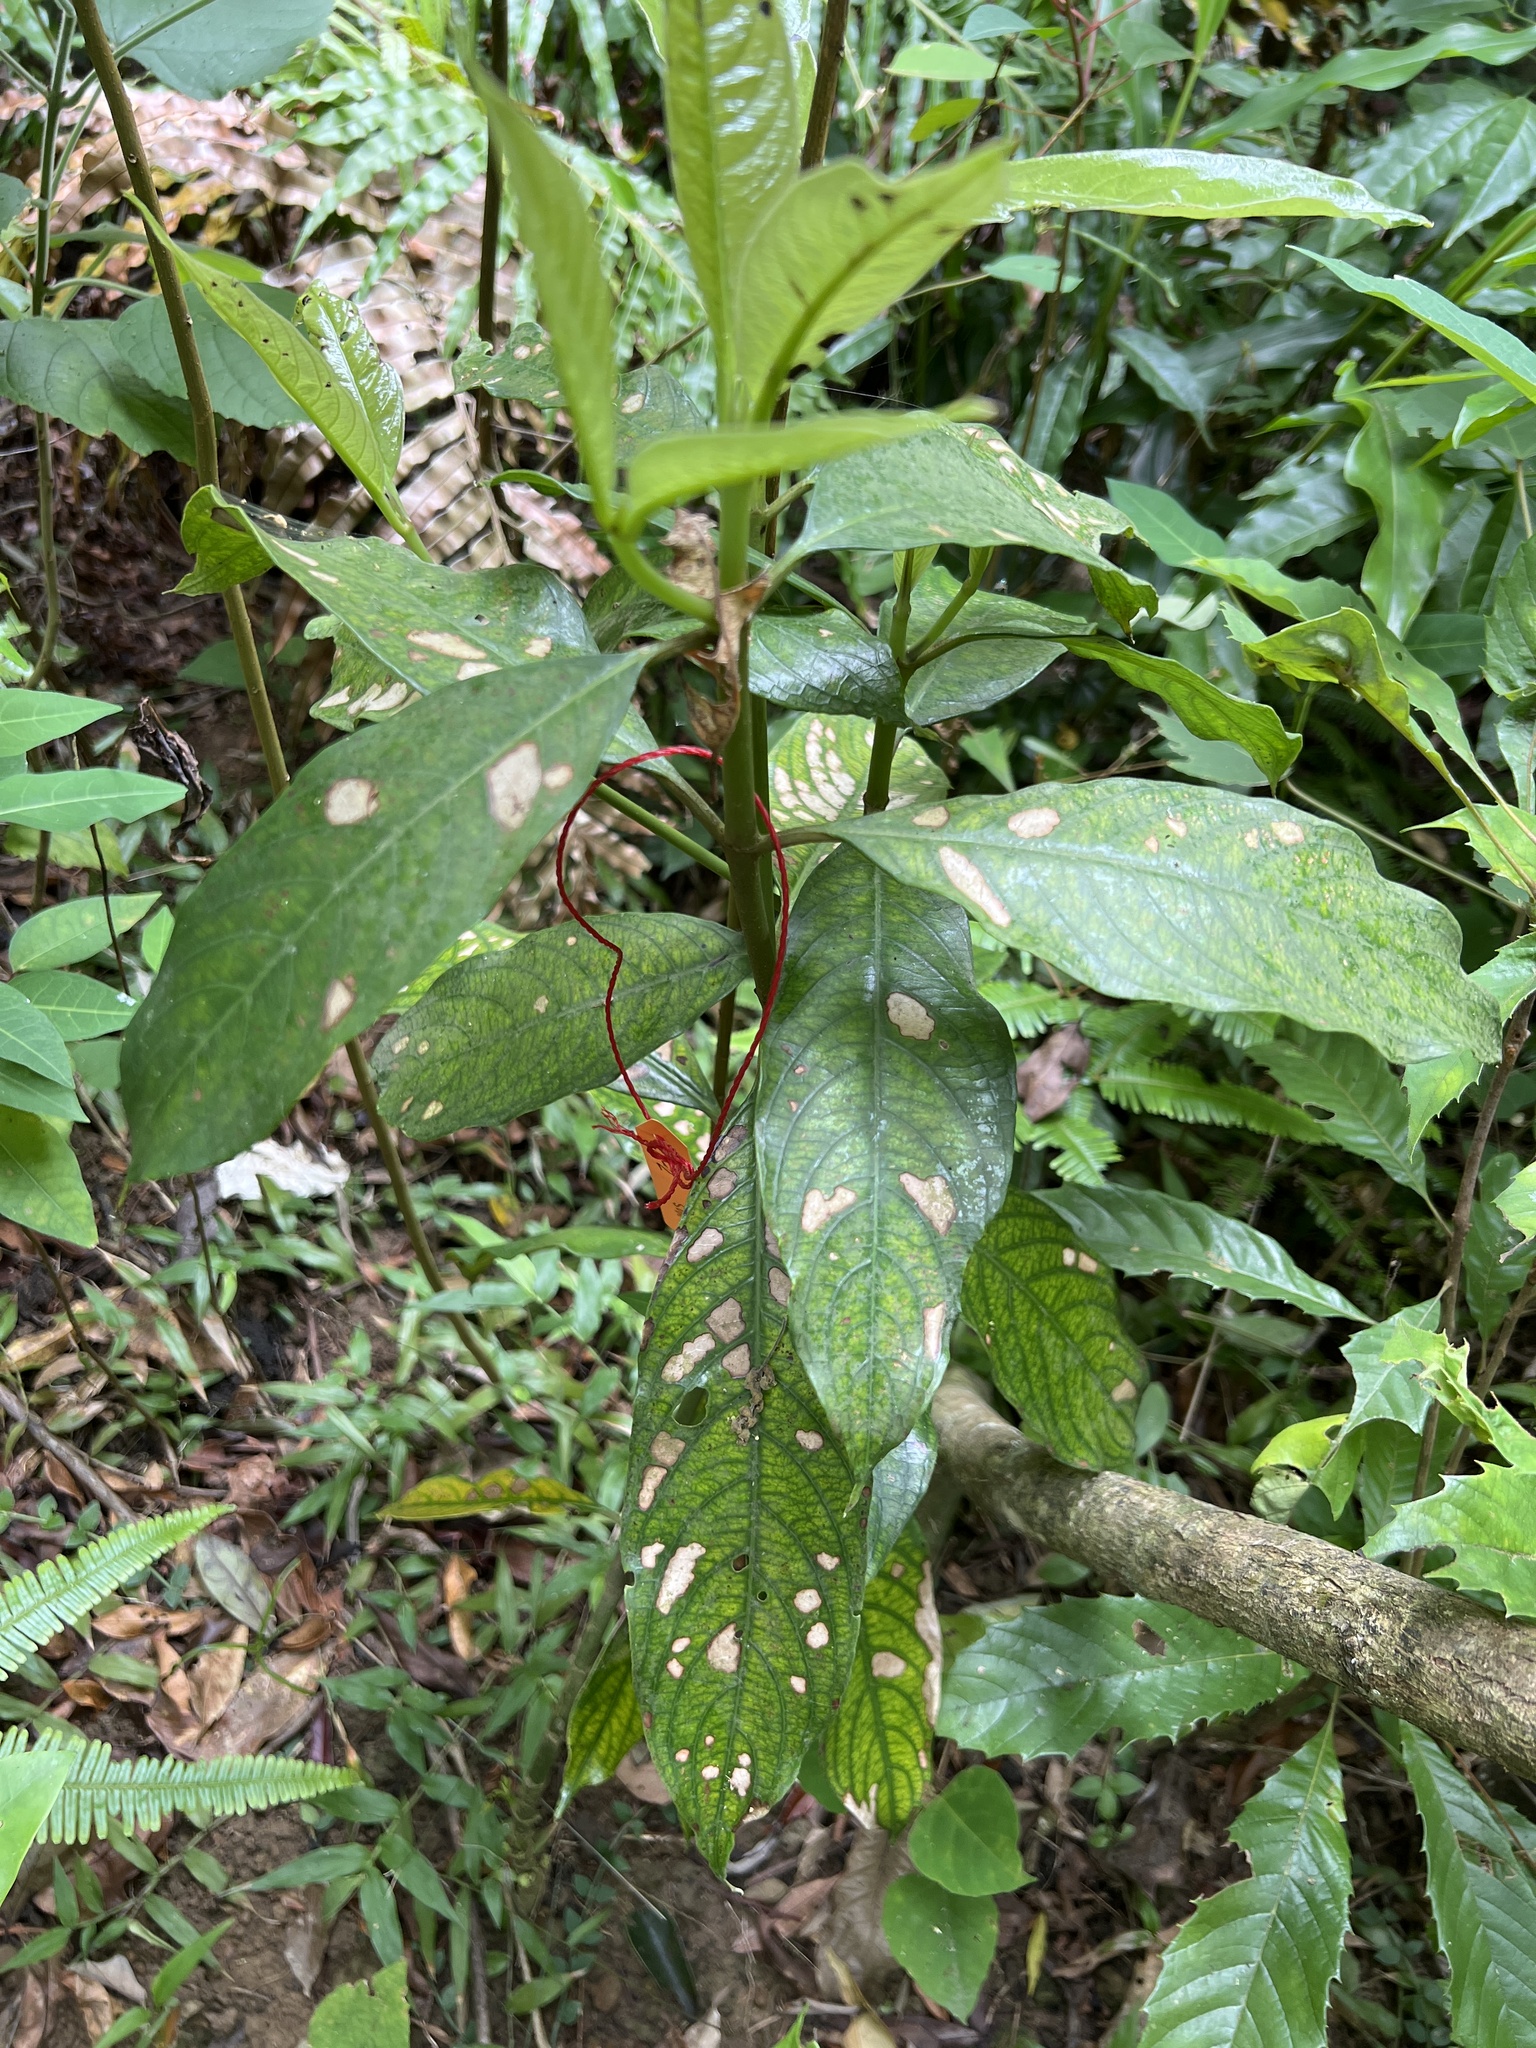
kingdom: Plantae
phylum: Tracheophyta
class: Magnoliopsida
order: Gentianales
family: Rubiaceae
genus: Lasianthus
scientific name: Lasianthus chinensis
